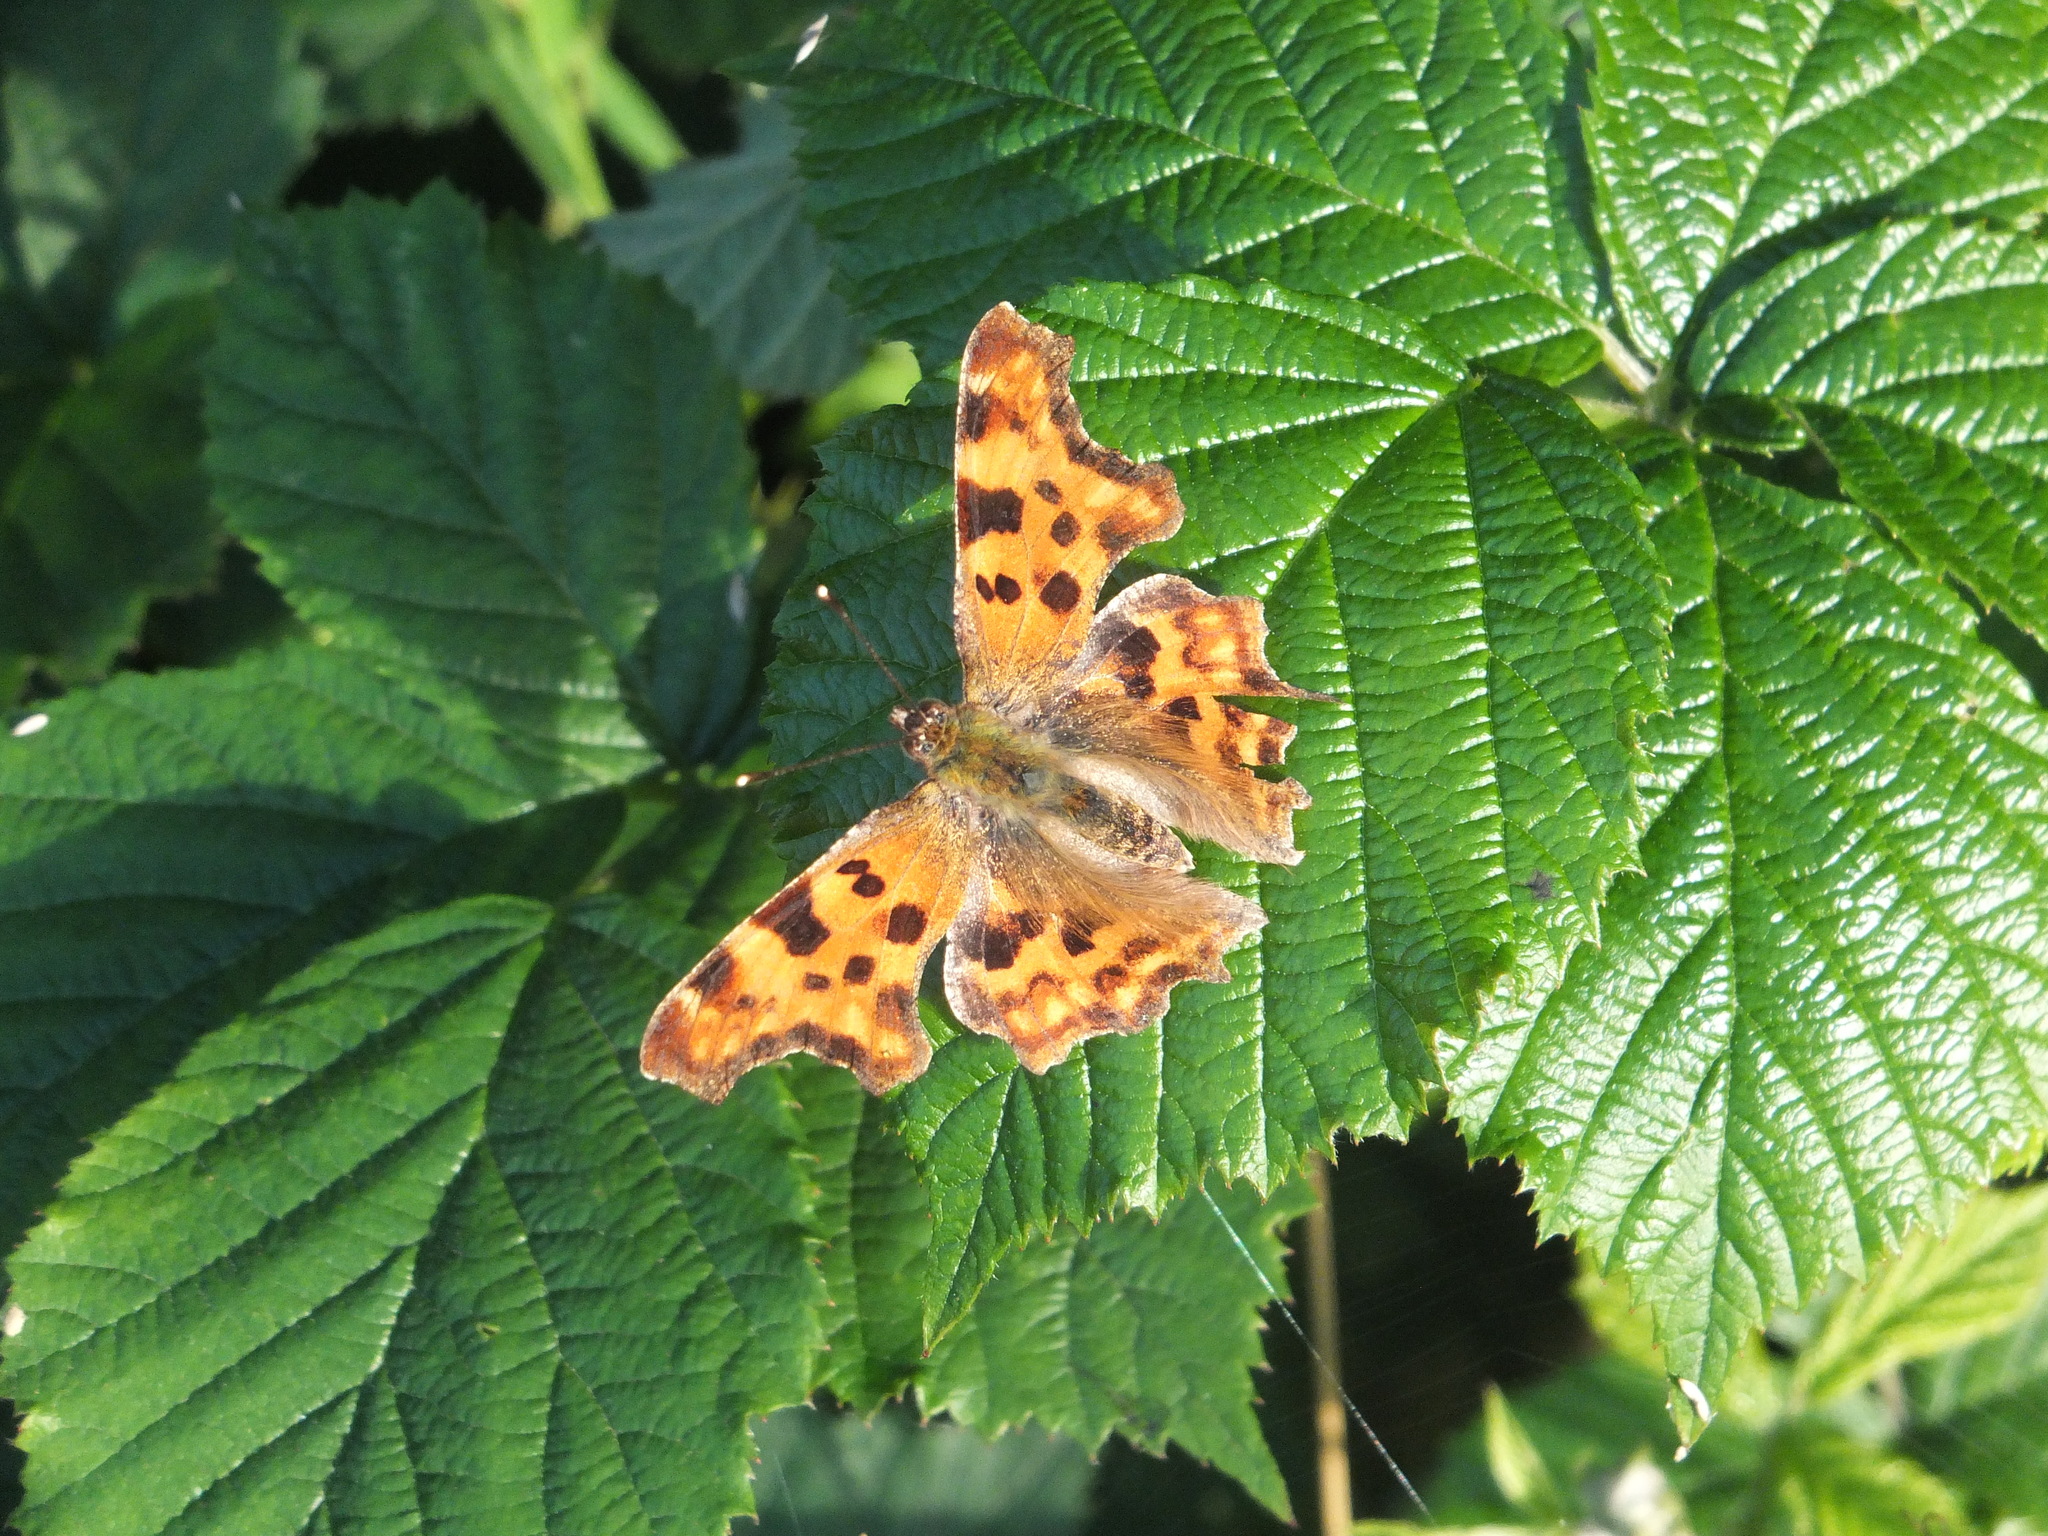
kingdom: Animalia
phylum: Arthropoda
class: Insecta
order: Lepidoptera
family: Nymphalidae
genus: Polygonia
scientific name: Polygonia c-album
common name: Comma
